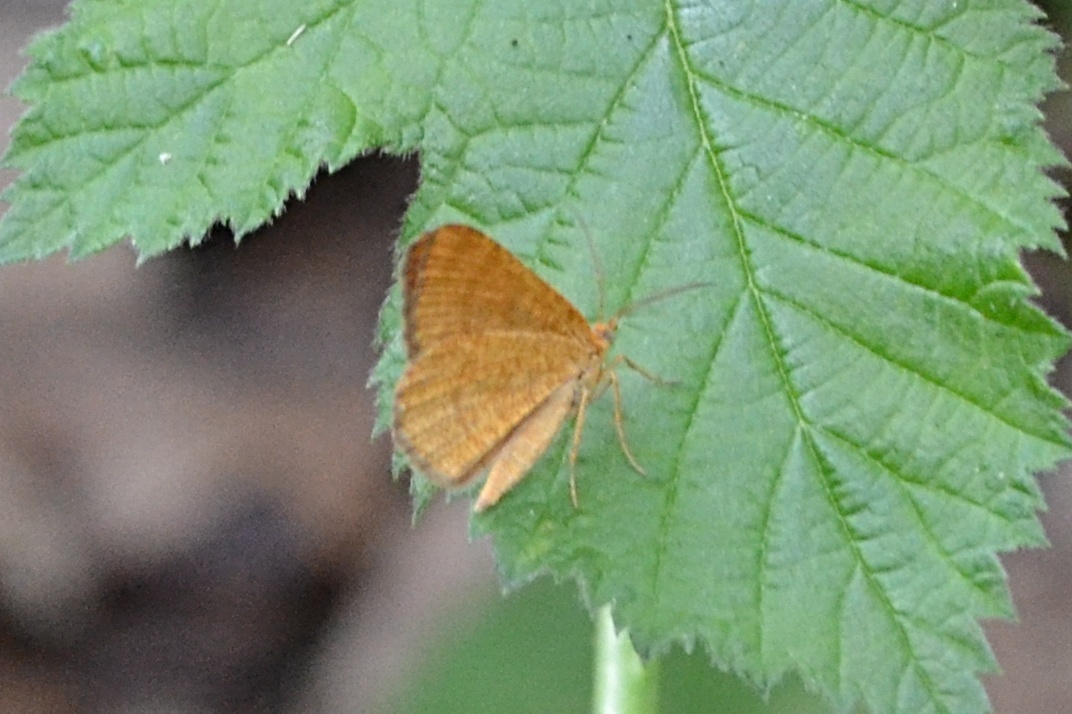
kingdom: Animalia
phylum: Arthropoda
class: Insecta
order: Lepidoptera
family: Geometridae
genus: Macaria
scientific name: Macaria brunneata
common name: Rannoch looper
